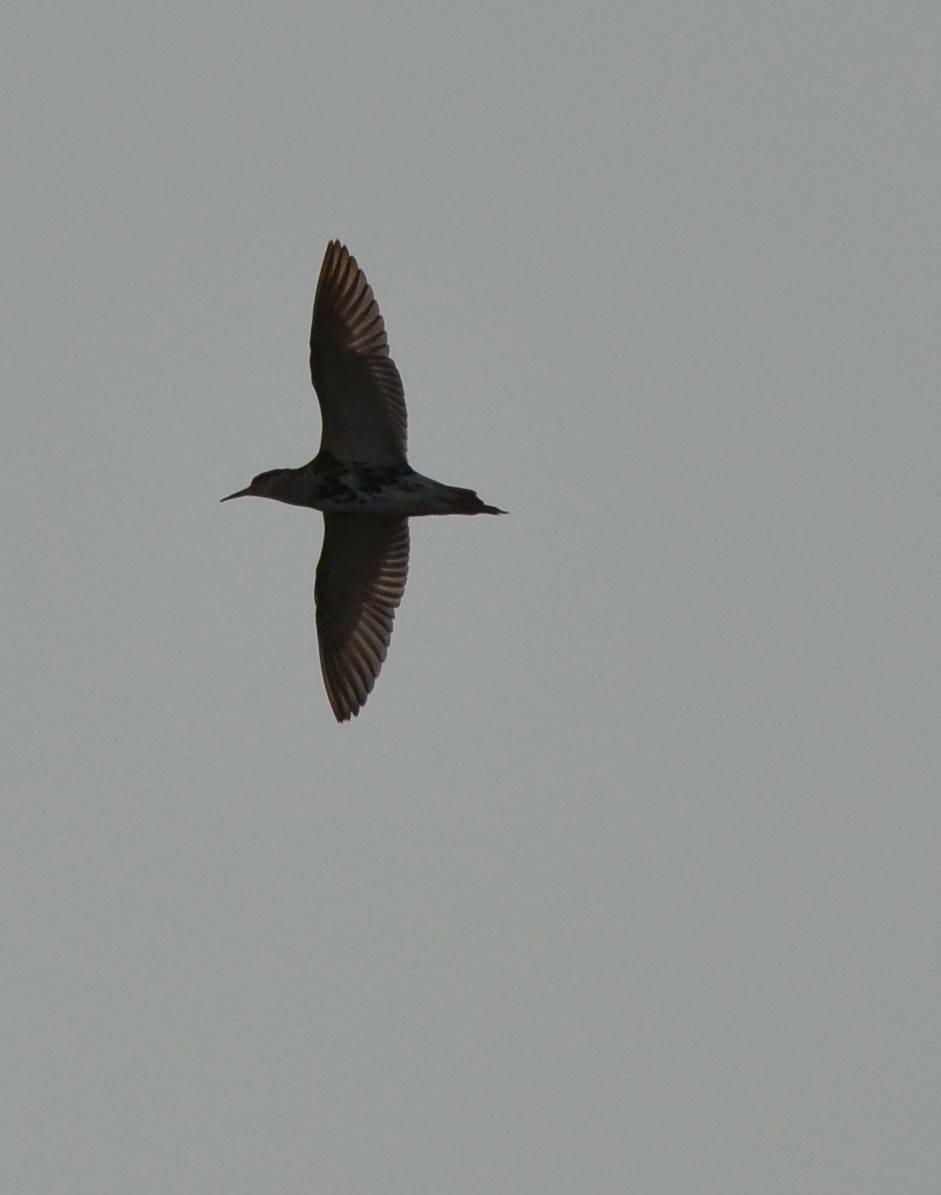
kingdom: Animalia
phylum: Chordata
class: Aves
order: Charadriiformes
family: Scolopacidae
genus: Calidris
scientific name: Calidris pugnax
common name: Ruff
